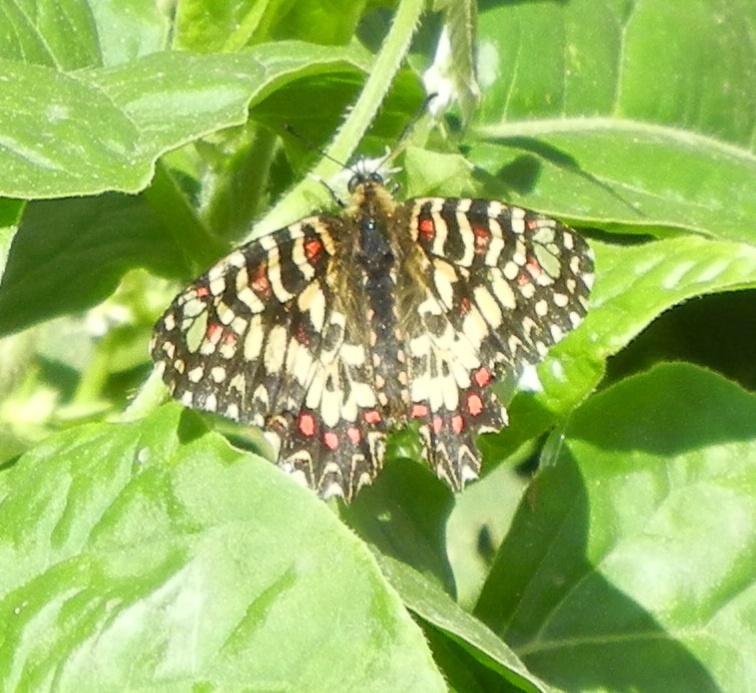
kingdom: Animalia
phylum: Arthropoda
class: Insecta
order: Lepidoptera
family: Papilionidae
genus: Zerynthia
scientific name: Zerynthia rumina
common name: Spanish festoon
